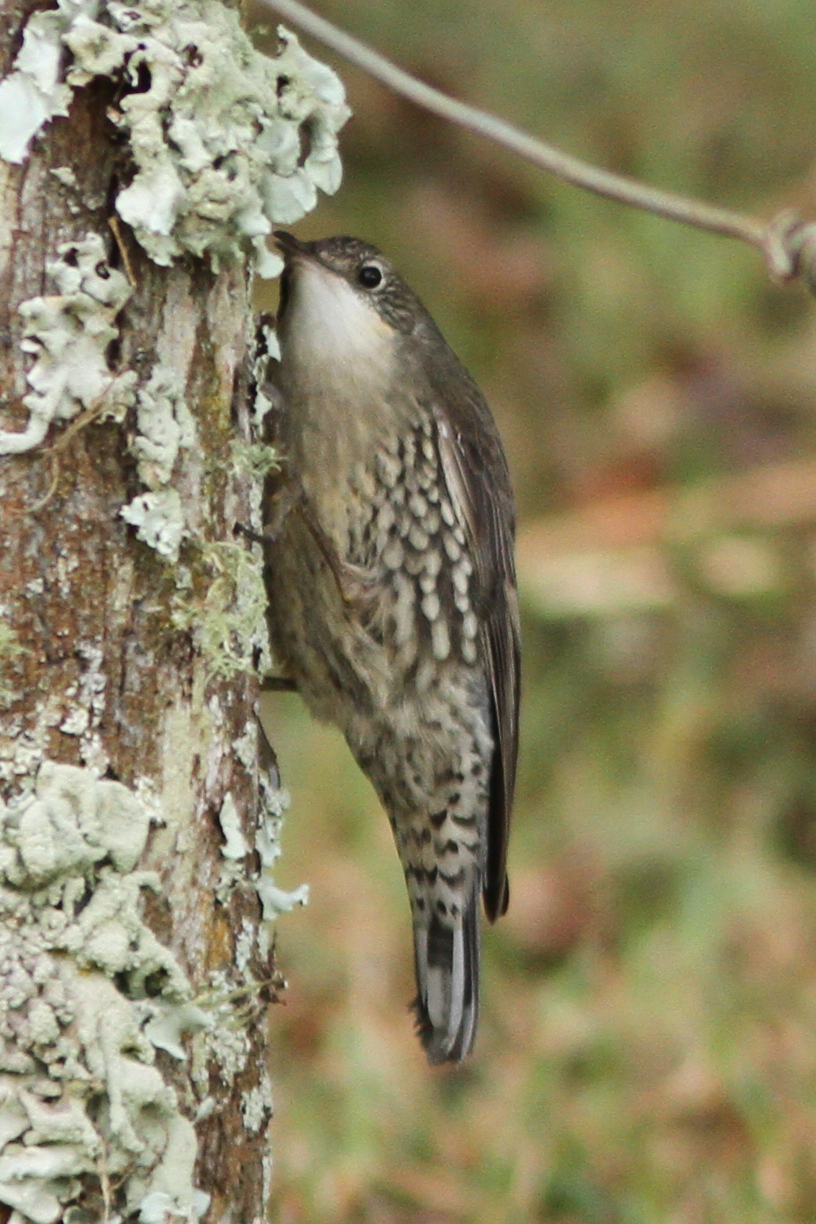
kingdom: Animalia
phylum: Chordata
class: Aves
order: Passeriformes
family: Climacteridae
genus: Cormobates
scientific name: Cormobates leucophaea
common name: White-throated treecreeper
